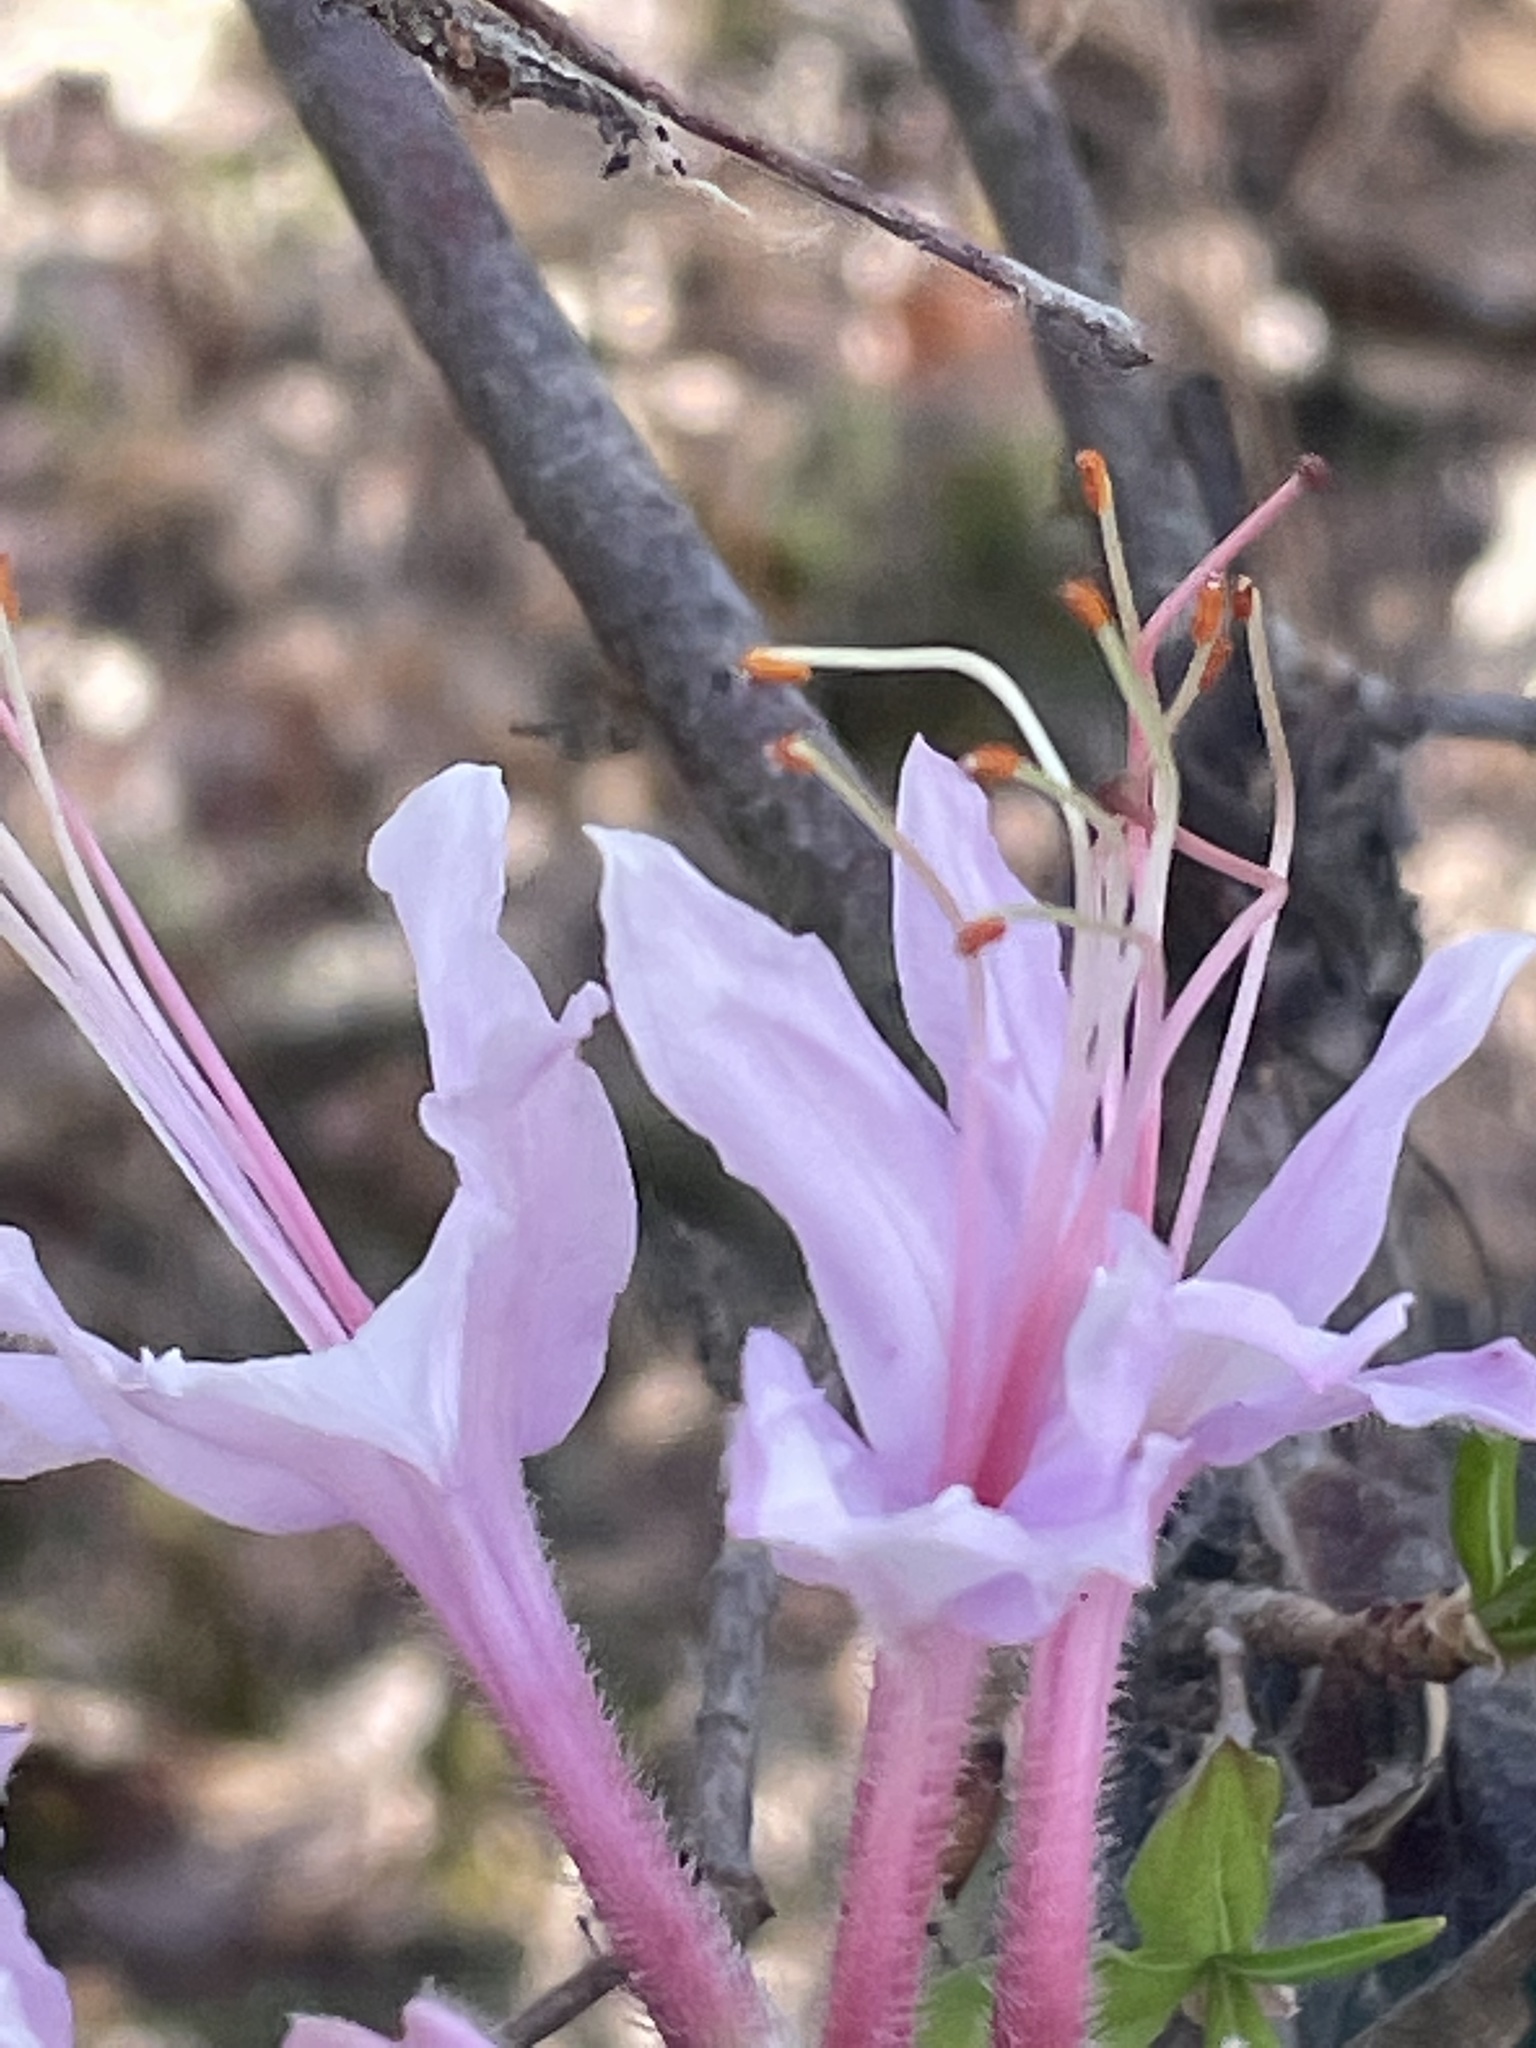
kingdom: Plantae
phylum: Tracheophyta
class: Magnoliopsida
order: Ericales
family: Ericaceae
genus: Rhododendron
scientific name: Rhododendron periclymenoides
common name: Election-pink
